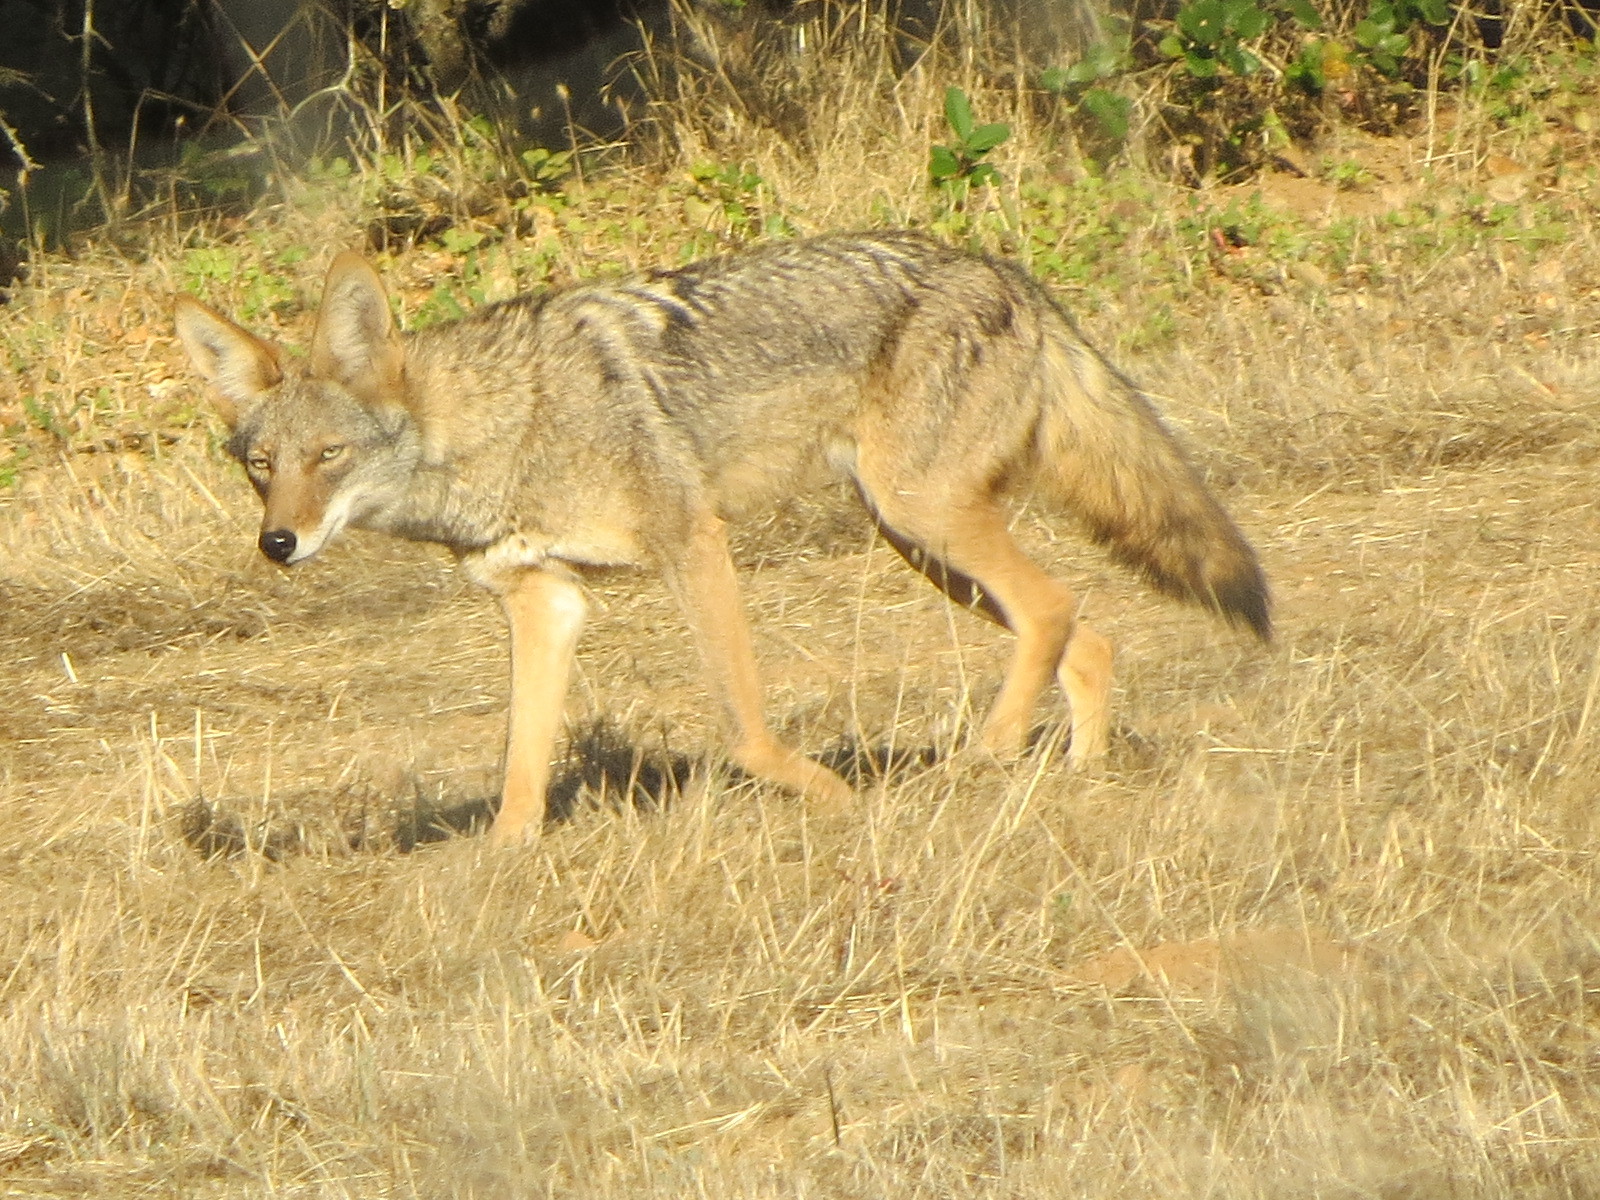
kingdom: Animalia
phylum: Chordata
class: Mammalia
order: Carnivora
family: Canidae
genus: Canis
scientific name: Canis latrans
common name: Coyote
